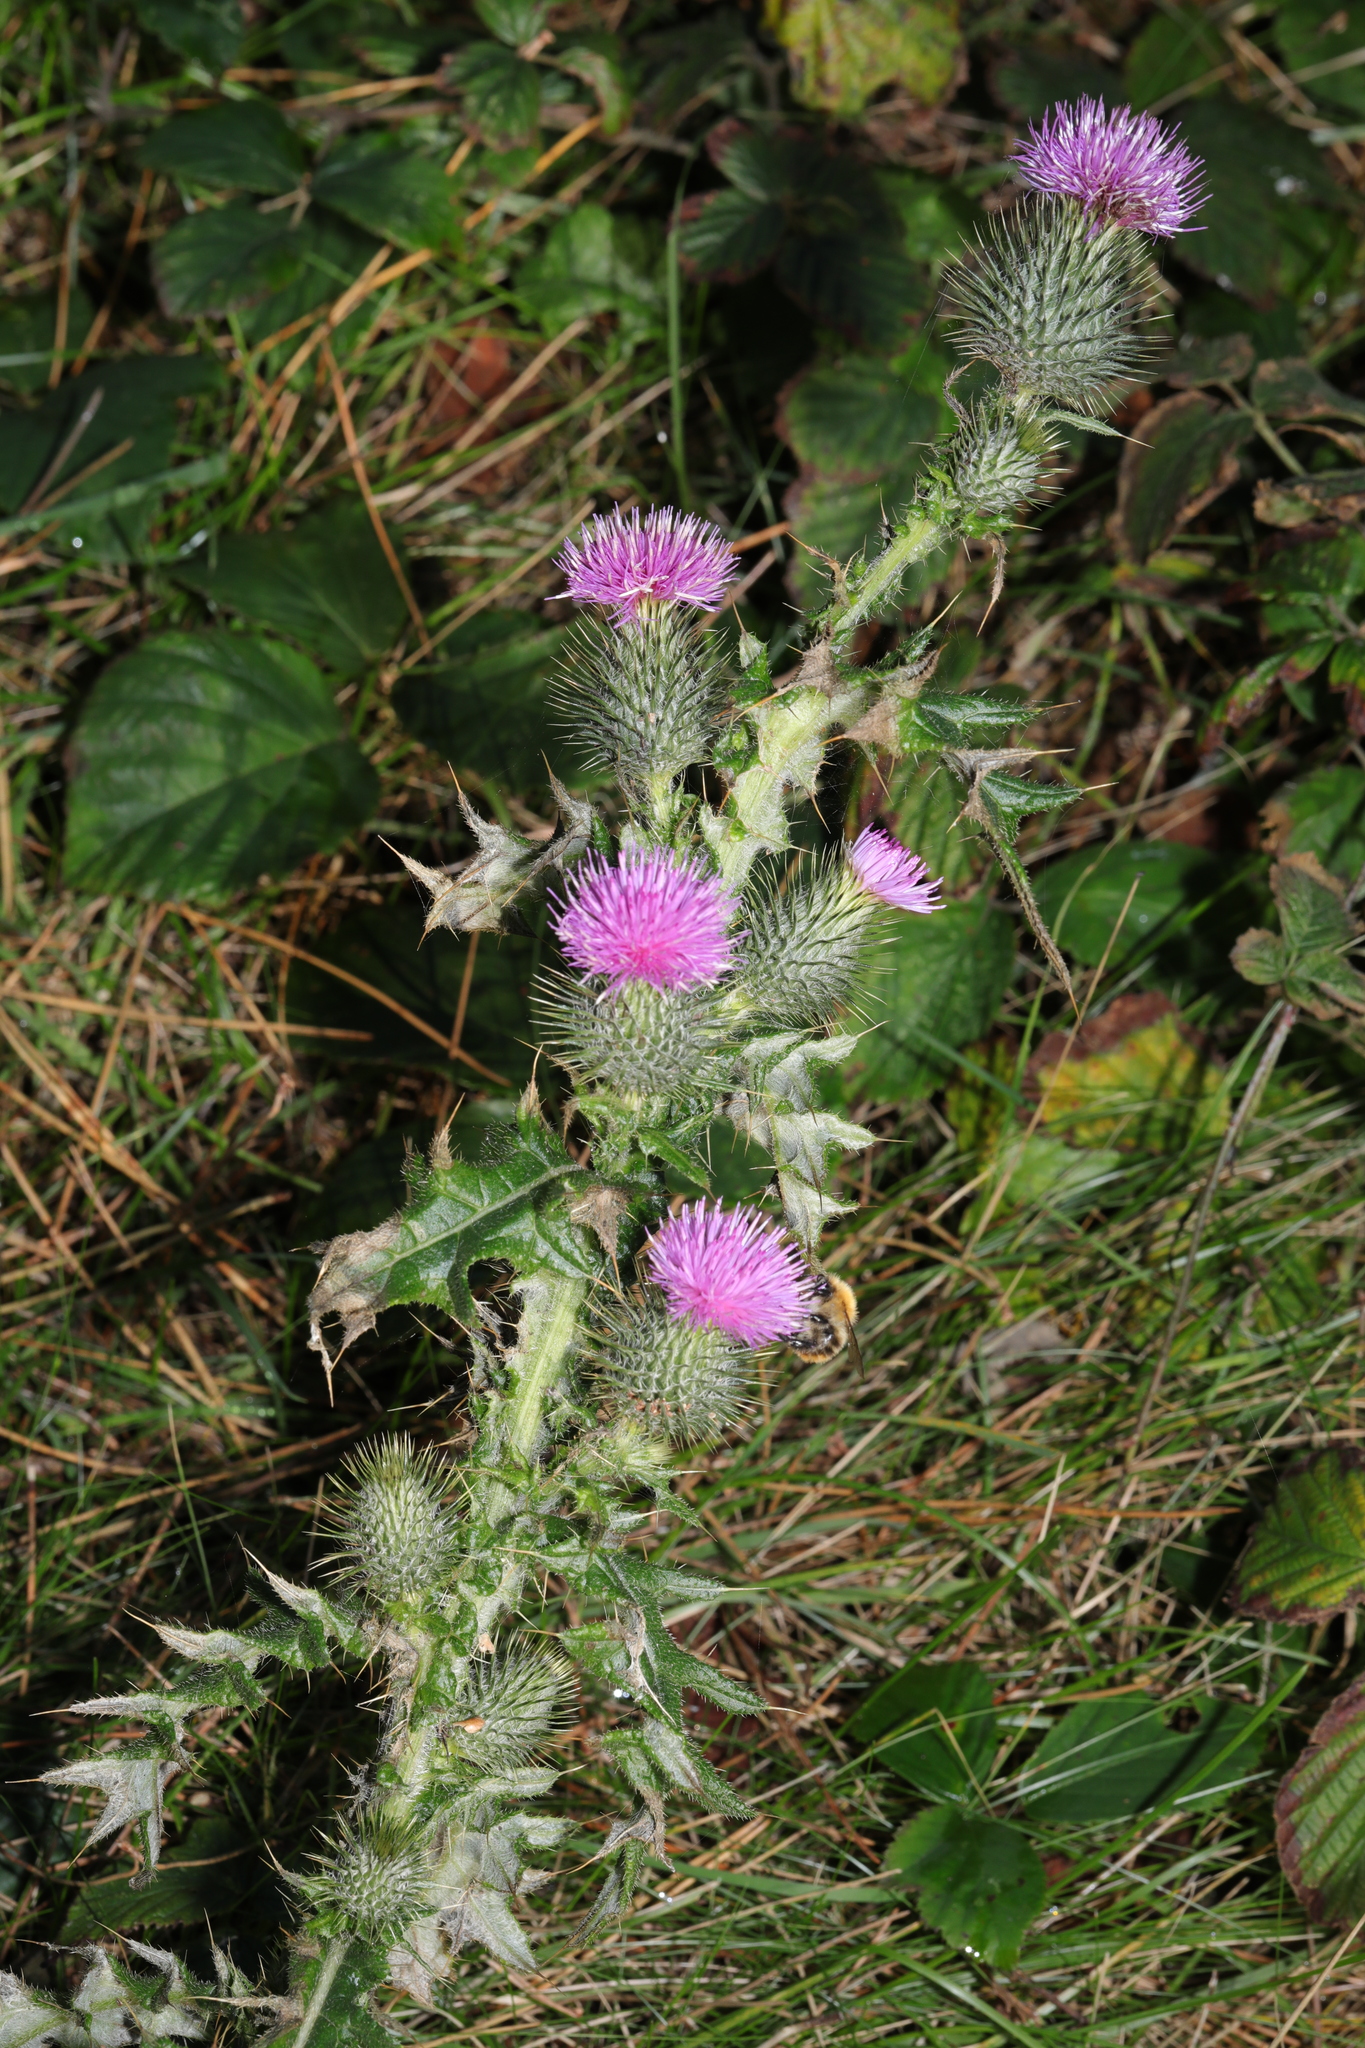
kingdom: Plantae
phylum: Tracheophyta
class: Magnoliopsida
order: Asterales
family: Asteraceae
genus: Cirsium
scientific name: Cirsium vulgare
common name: Bull thistle
